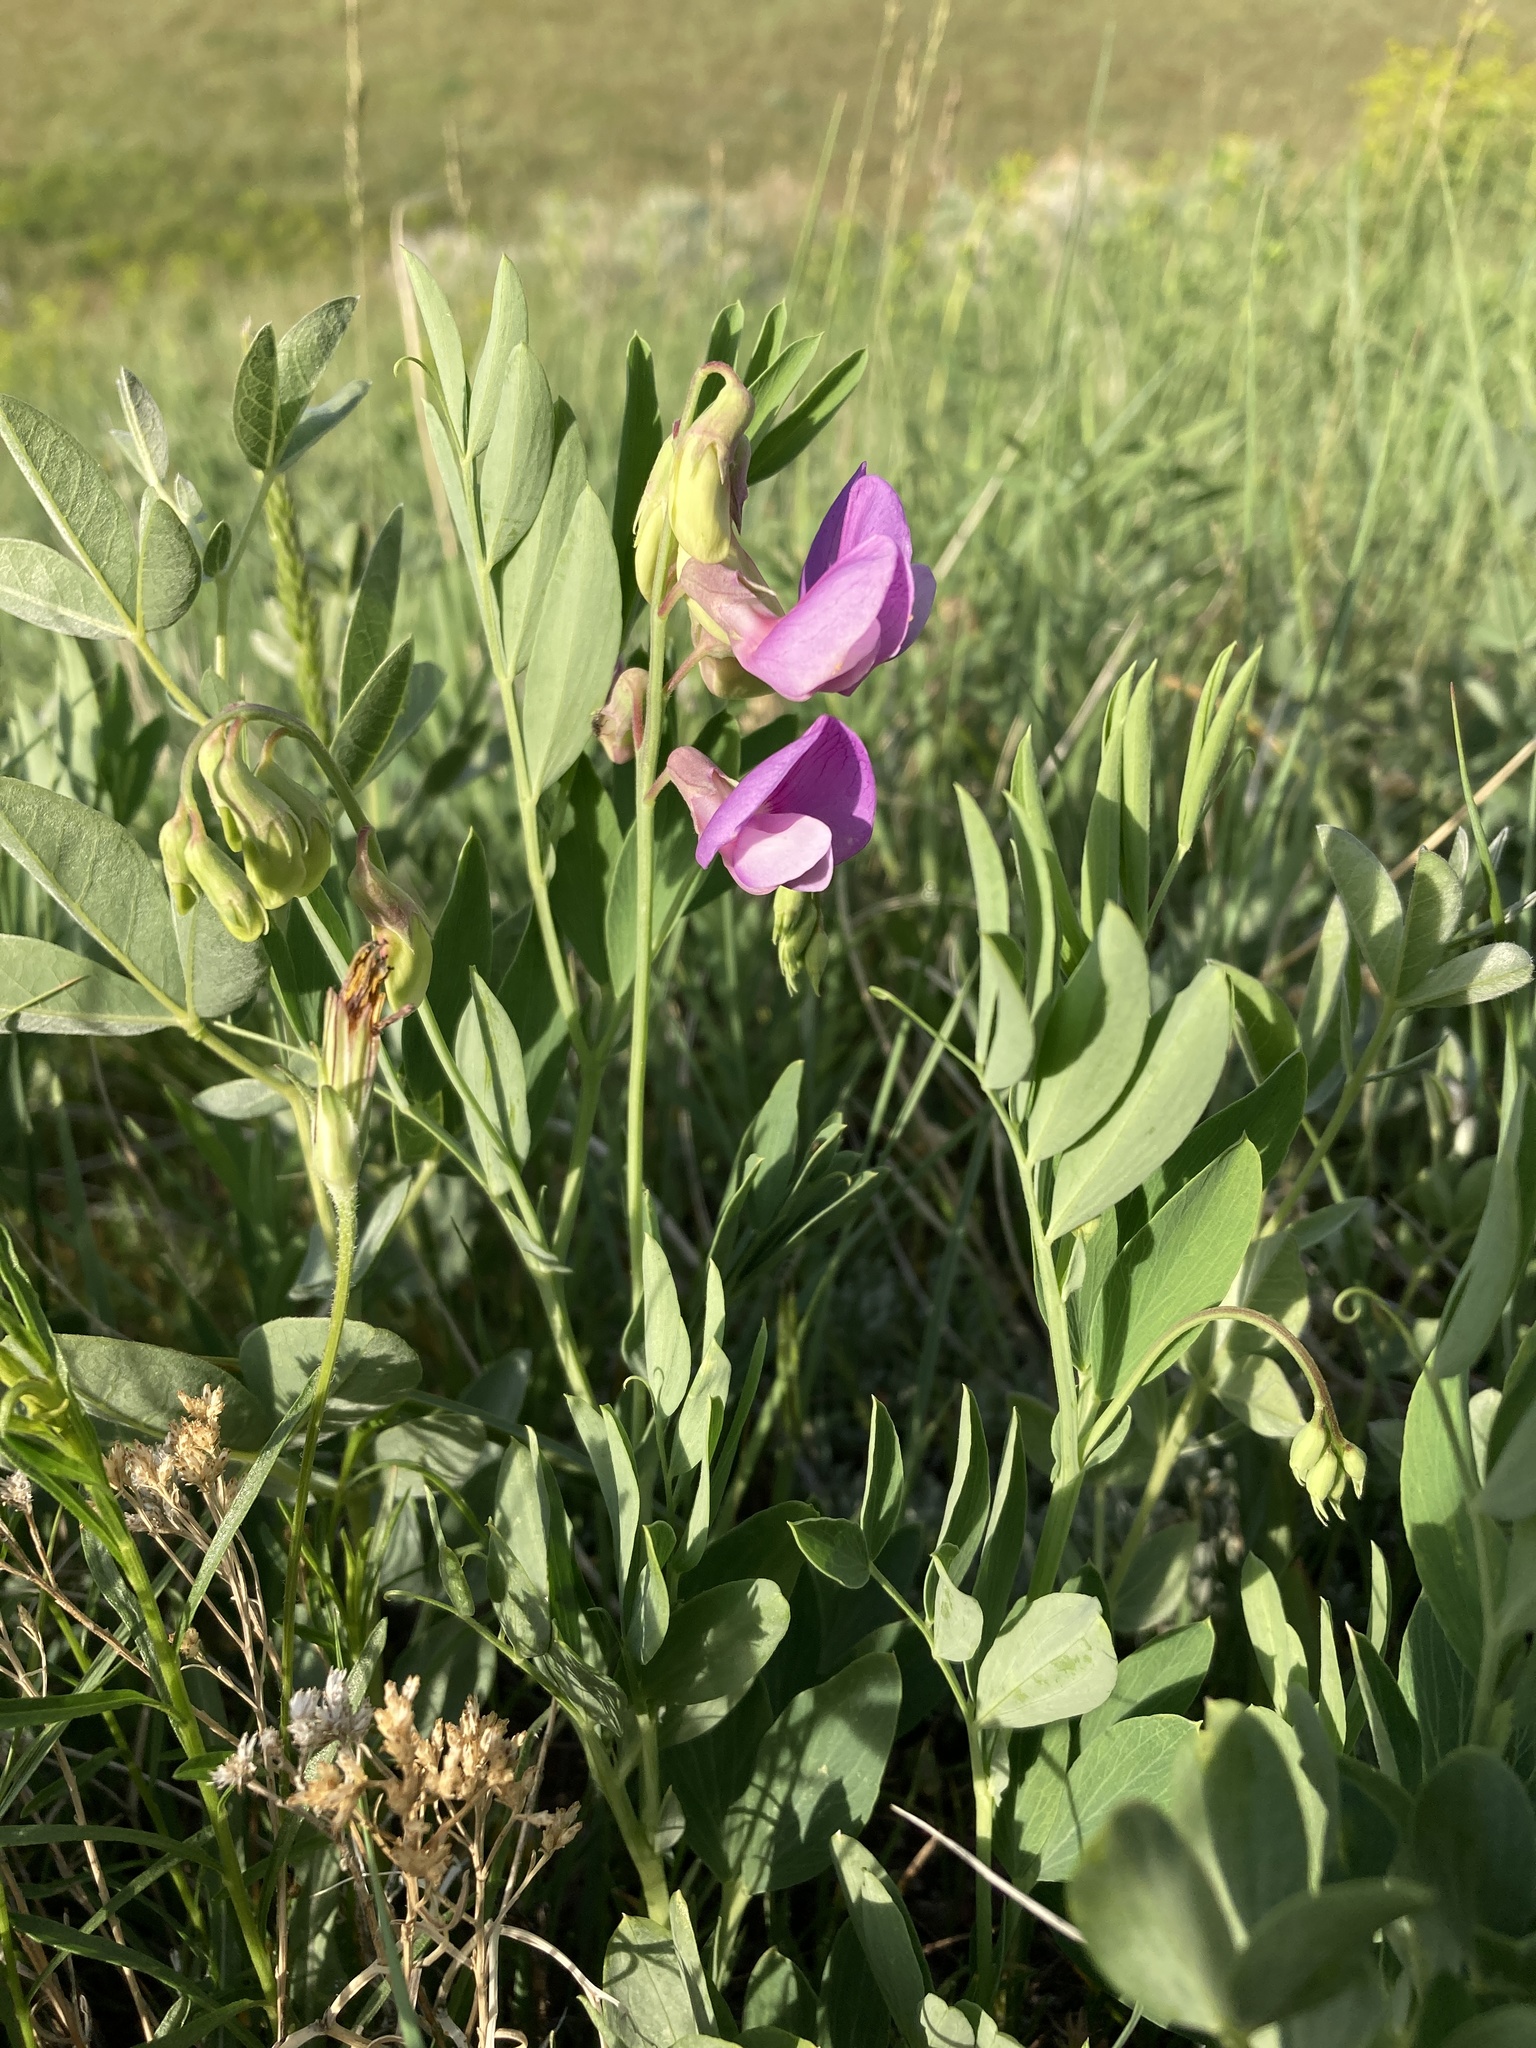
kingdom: Plantae
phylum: Tracheophyta
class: Magnoliopsida
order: Fabales
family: Fabaceae
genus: Lathyrus
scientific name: Lathyrus eucosmus
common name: Semmly vetchling
